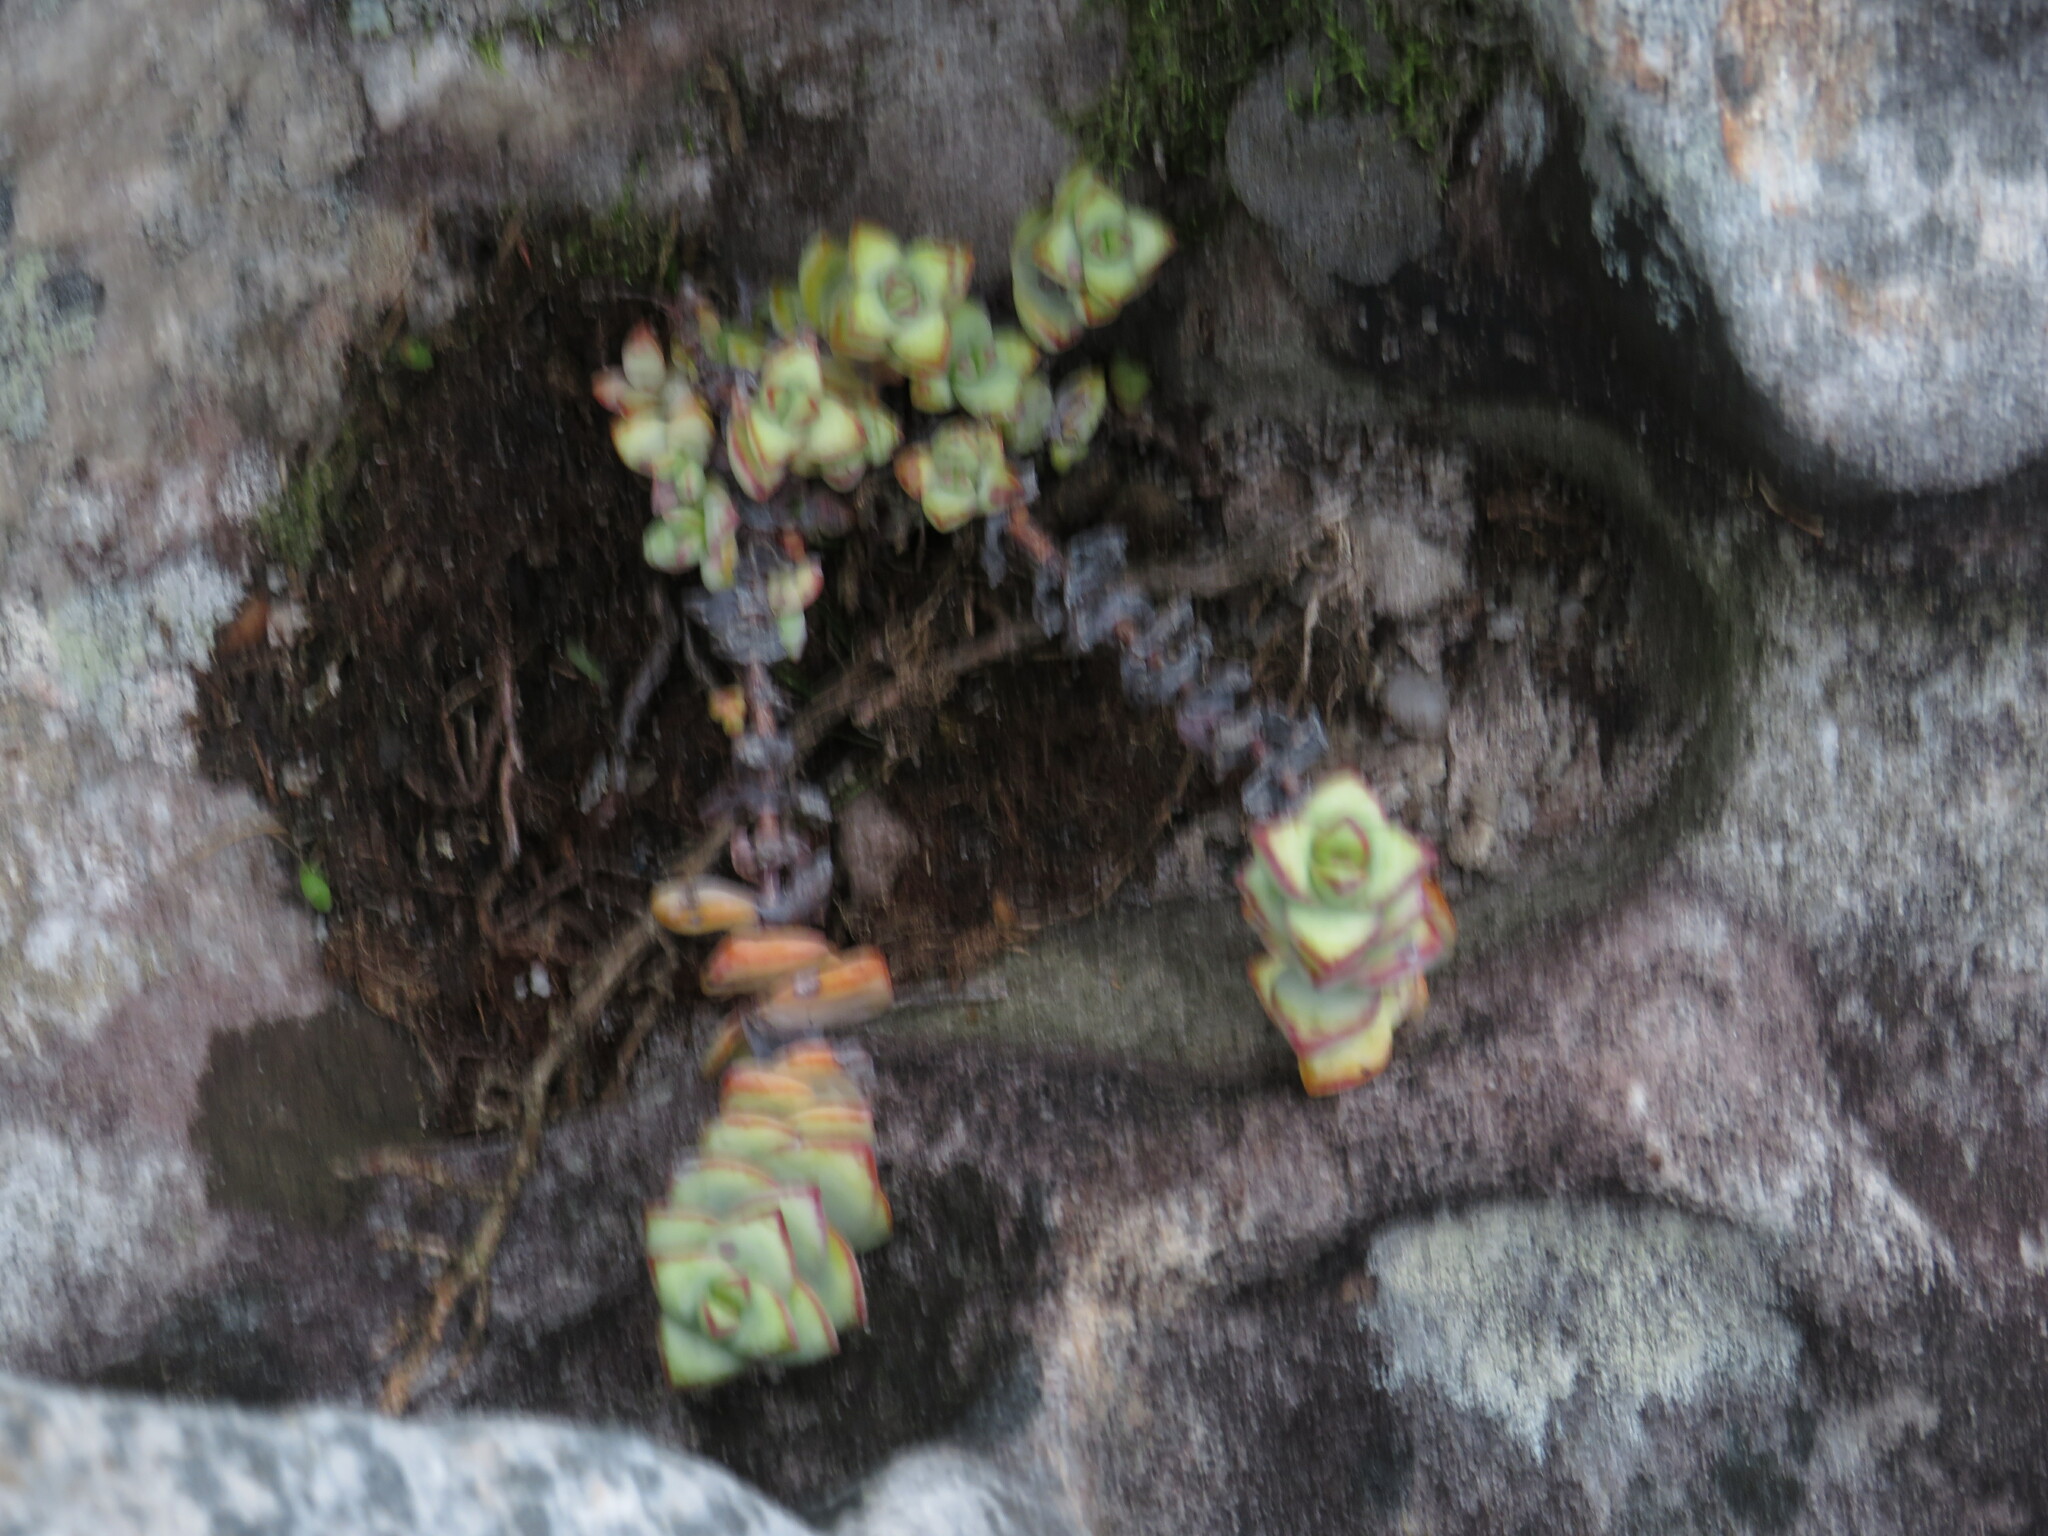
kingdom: Plantae
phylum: Tracheophyta
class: Magnoliopsida
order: Saxifragales
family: Crassulaceae
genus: Crassula
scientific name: Crassula rupestris
